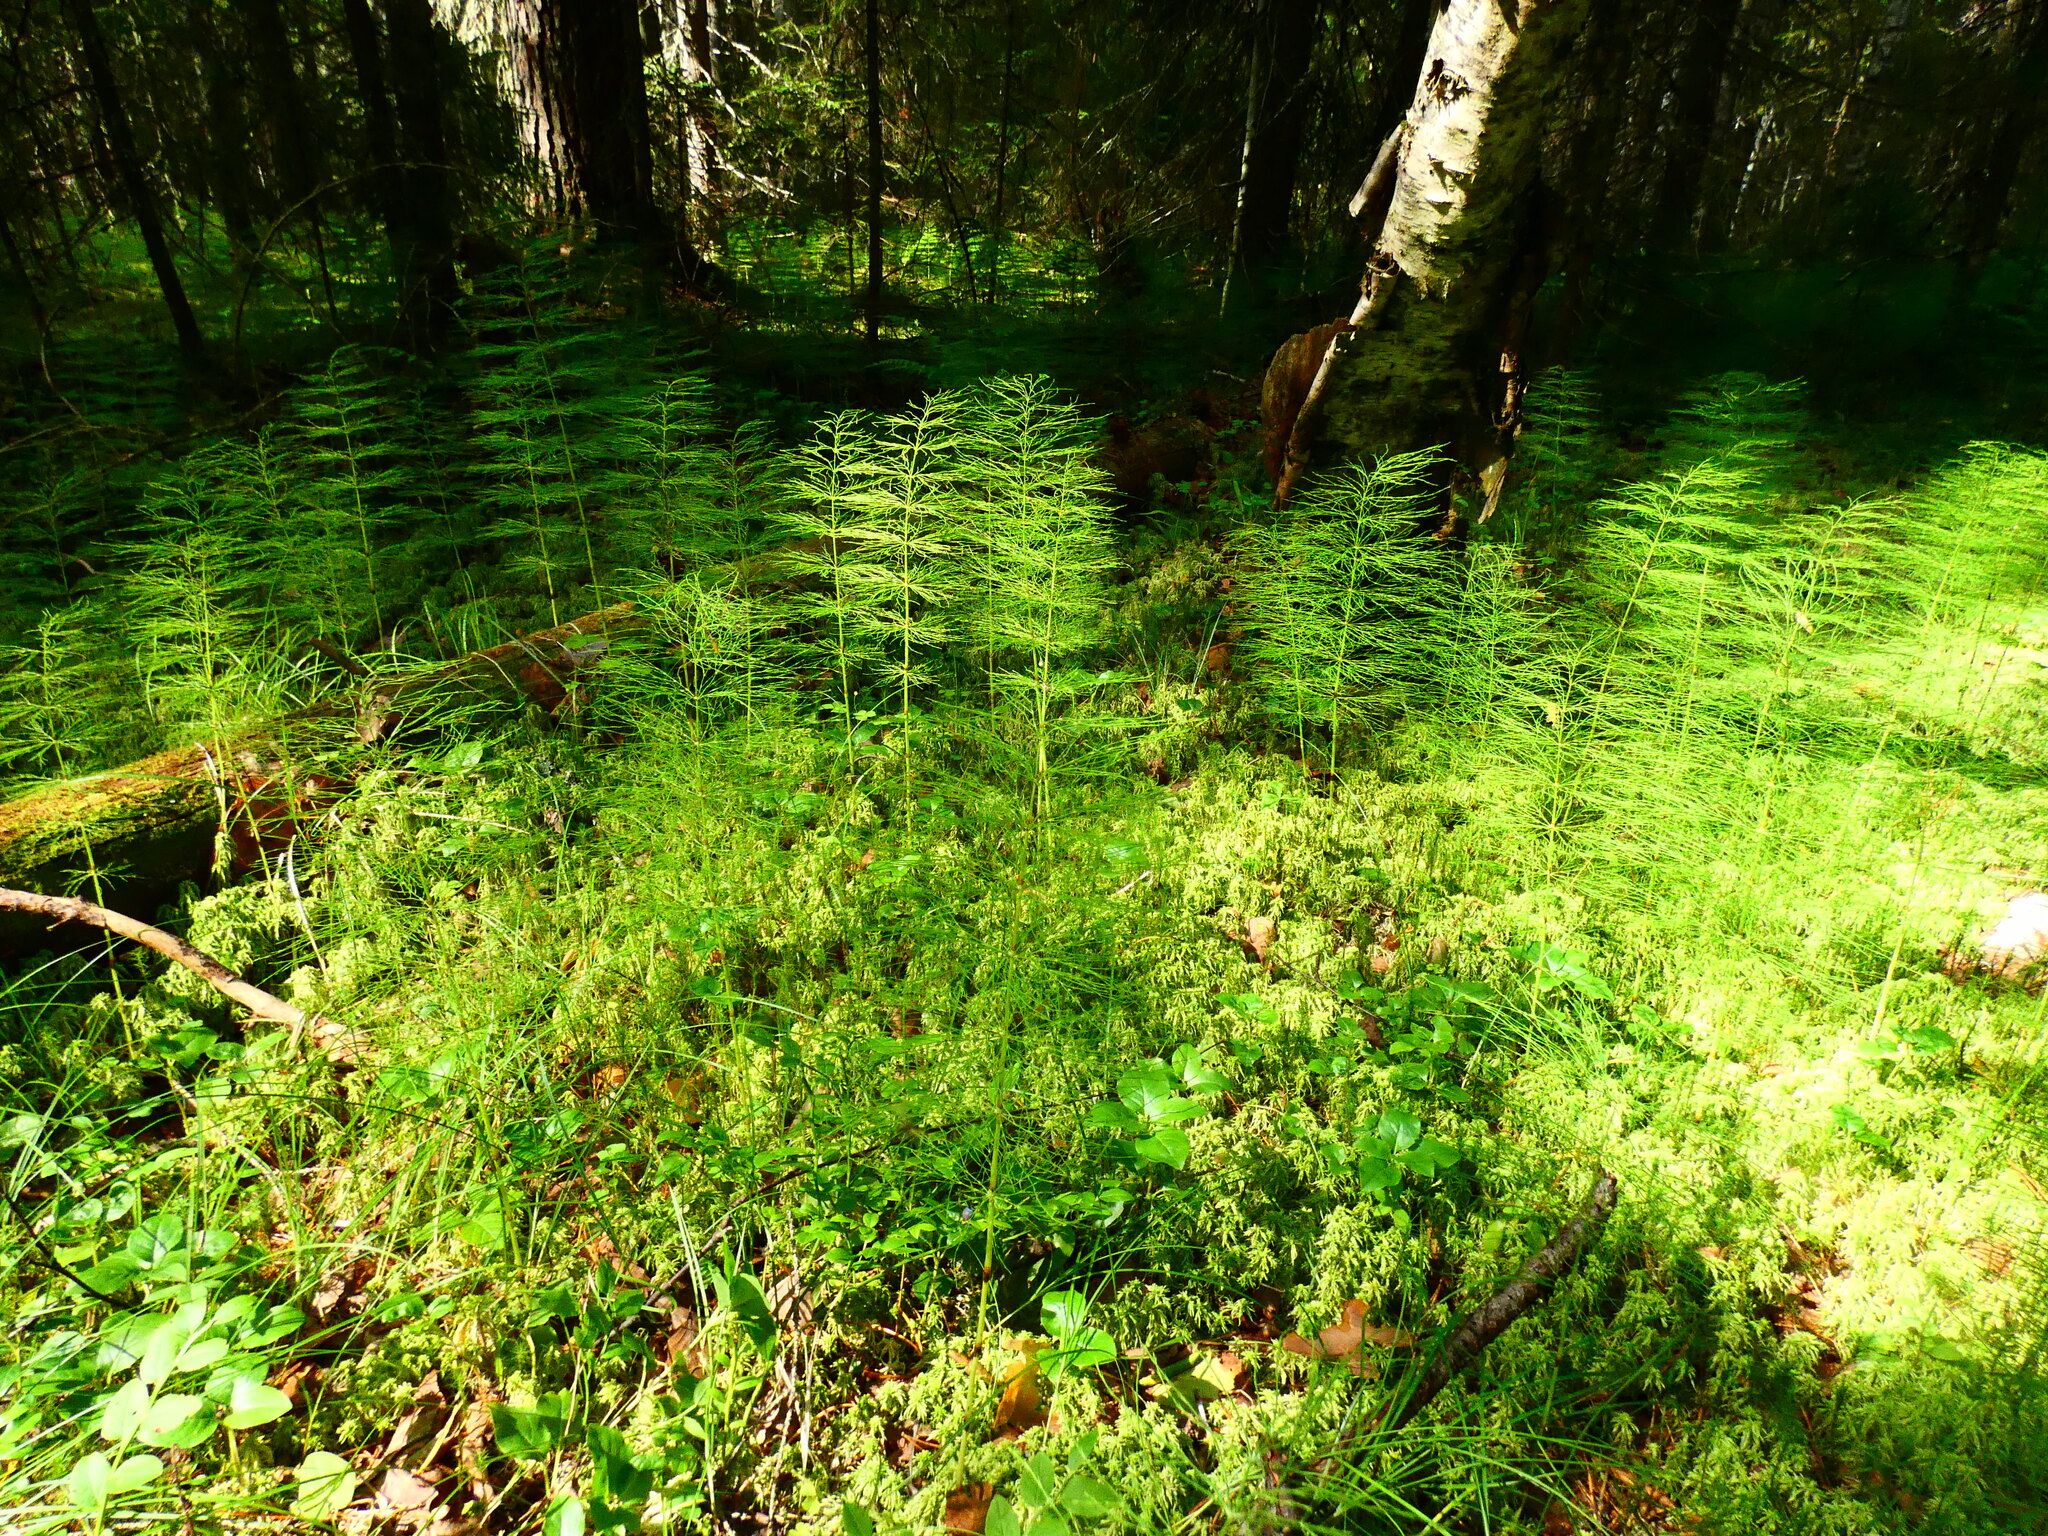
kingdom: Plantae
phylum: Tracheophyta
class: Polypodiopsida
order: Equisetales
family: Equisetaceae
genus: Equisetum
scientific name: Equisetum sylvaticum
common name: Wood horsetail
